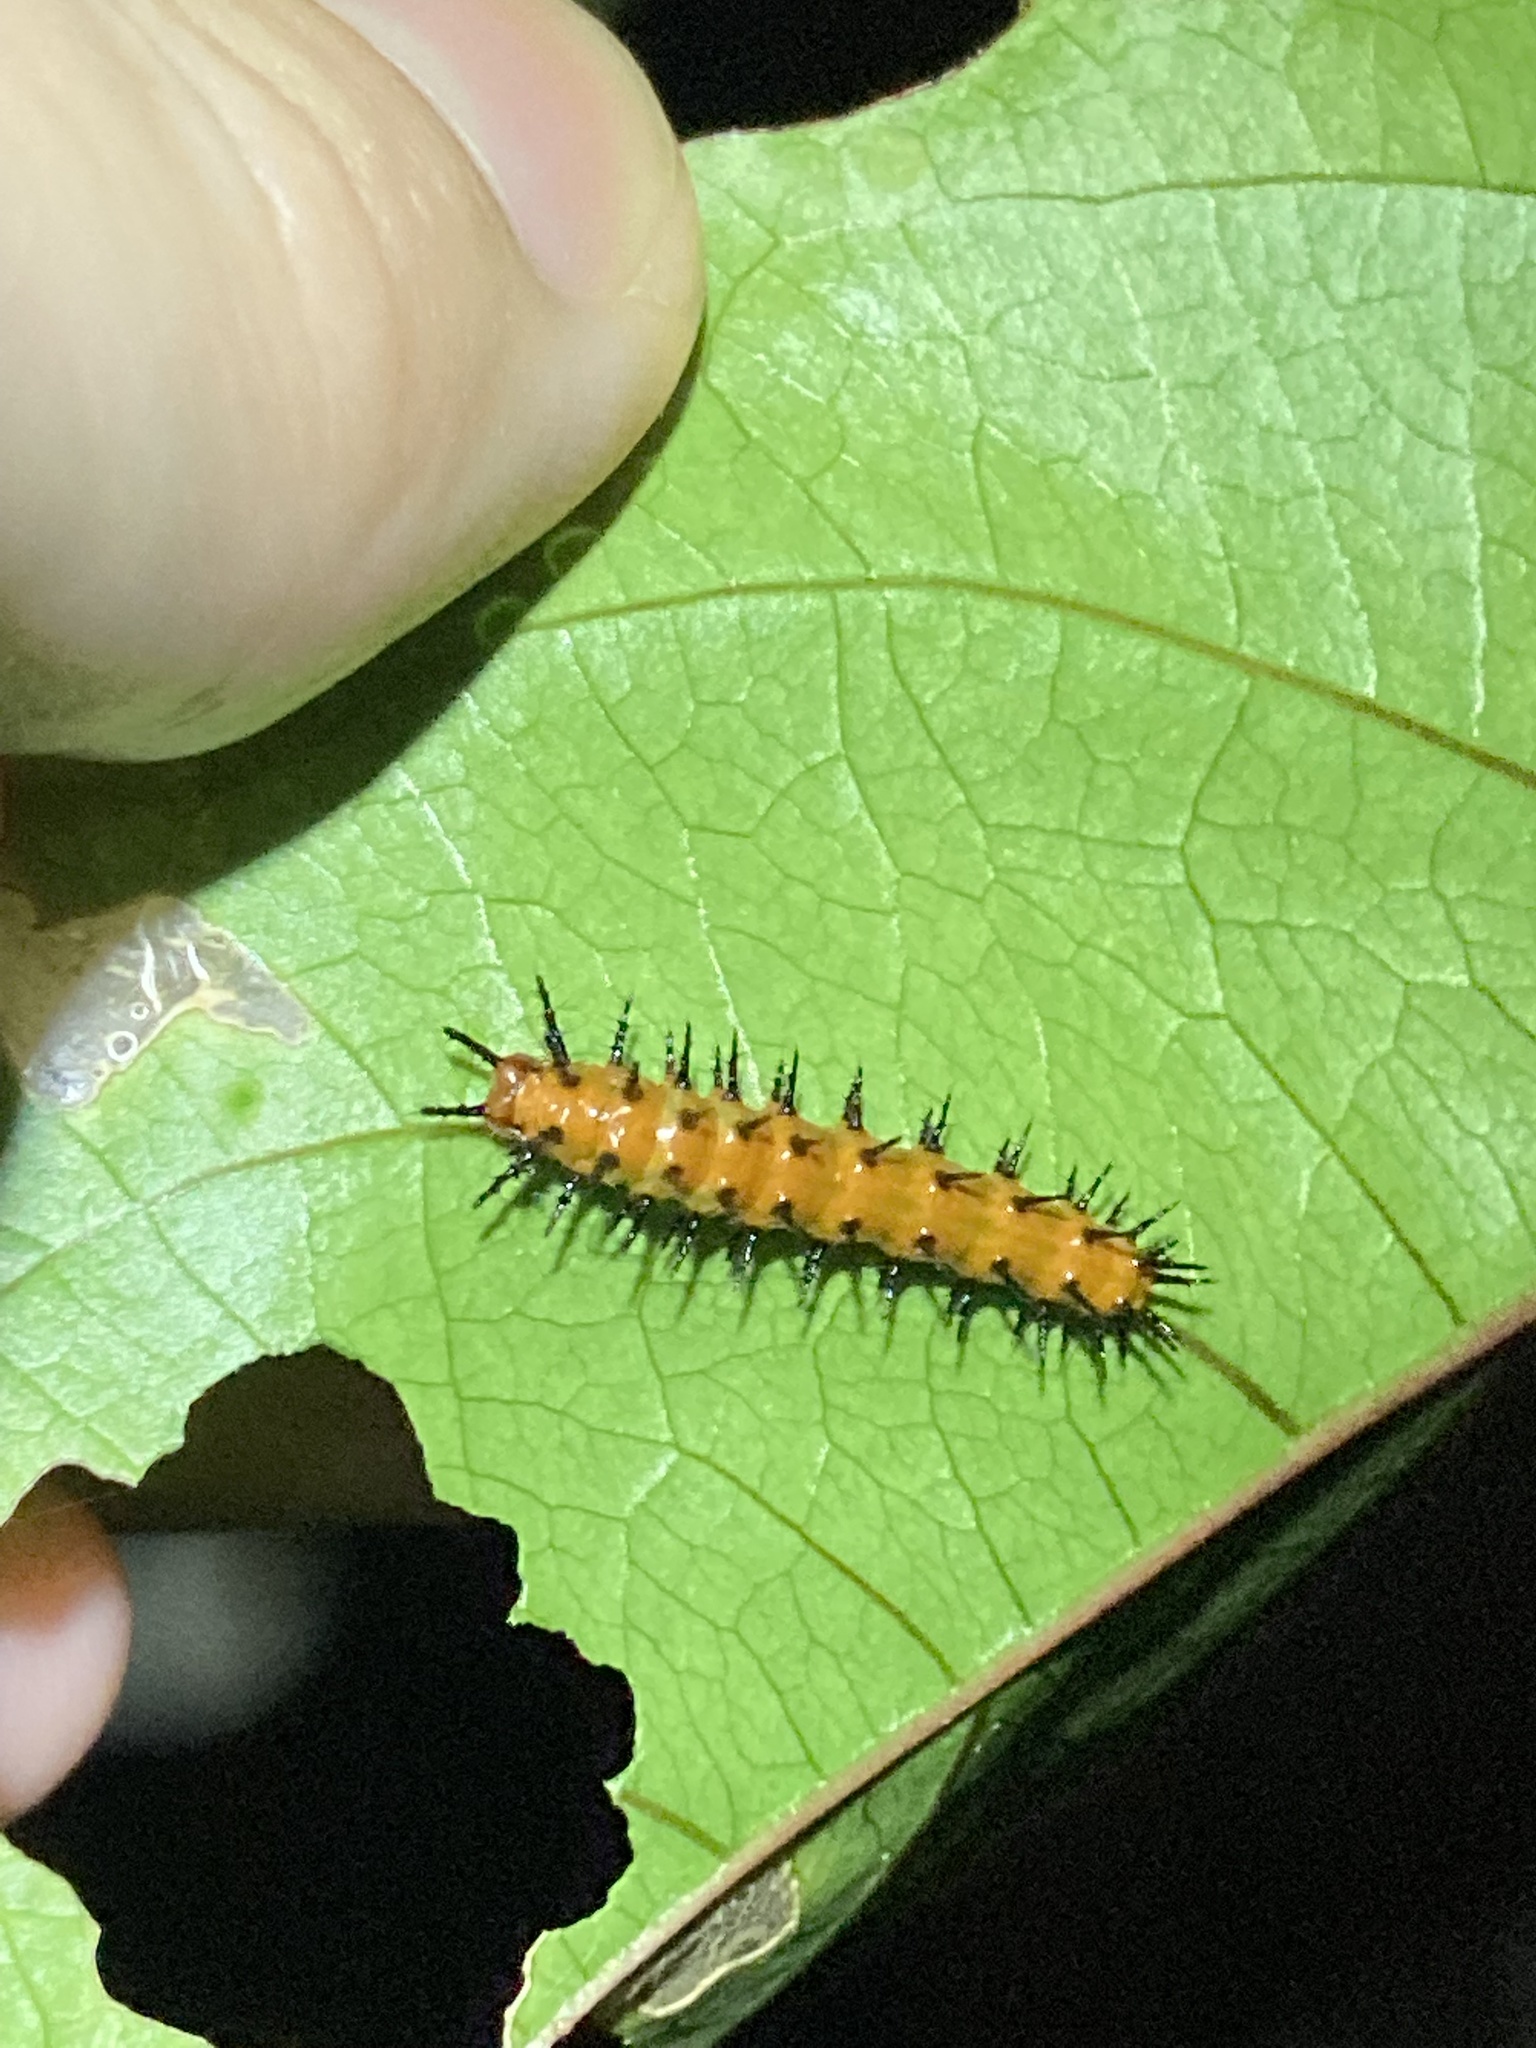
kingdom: Animalia
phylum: Arthropoda
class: Insecta
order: Lepidoptera
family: Nymphalidae
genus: Dione
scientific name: Dione vanillae
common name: Gulf fritillary
